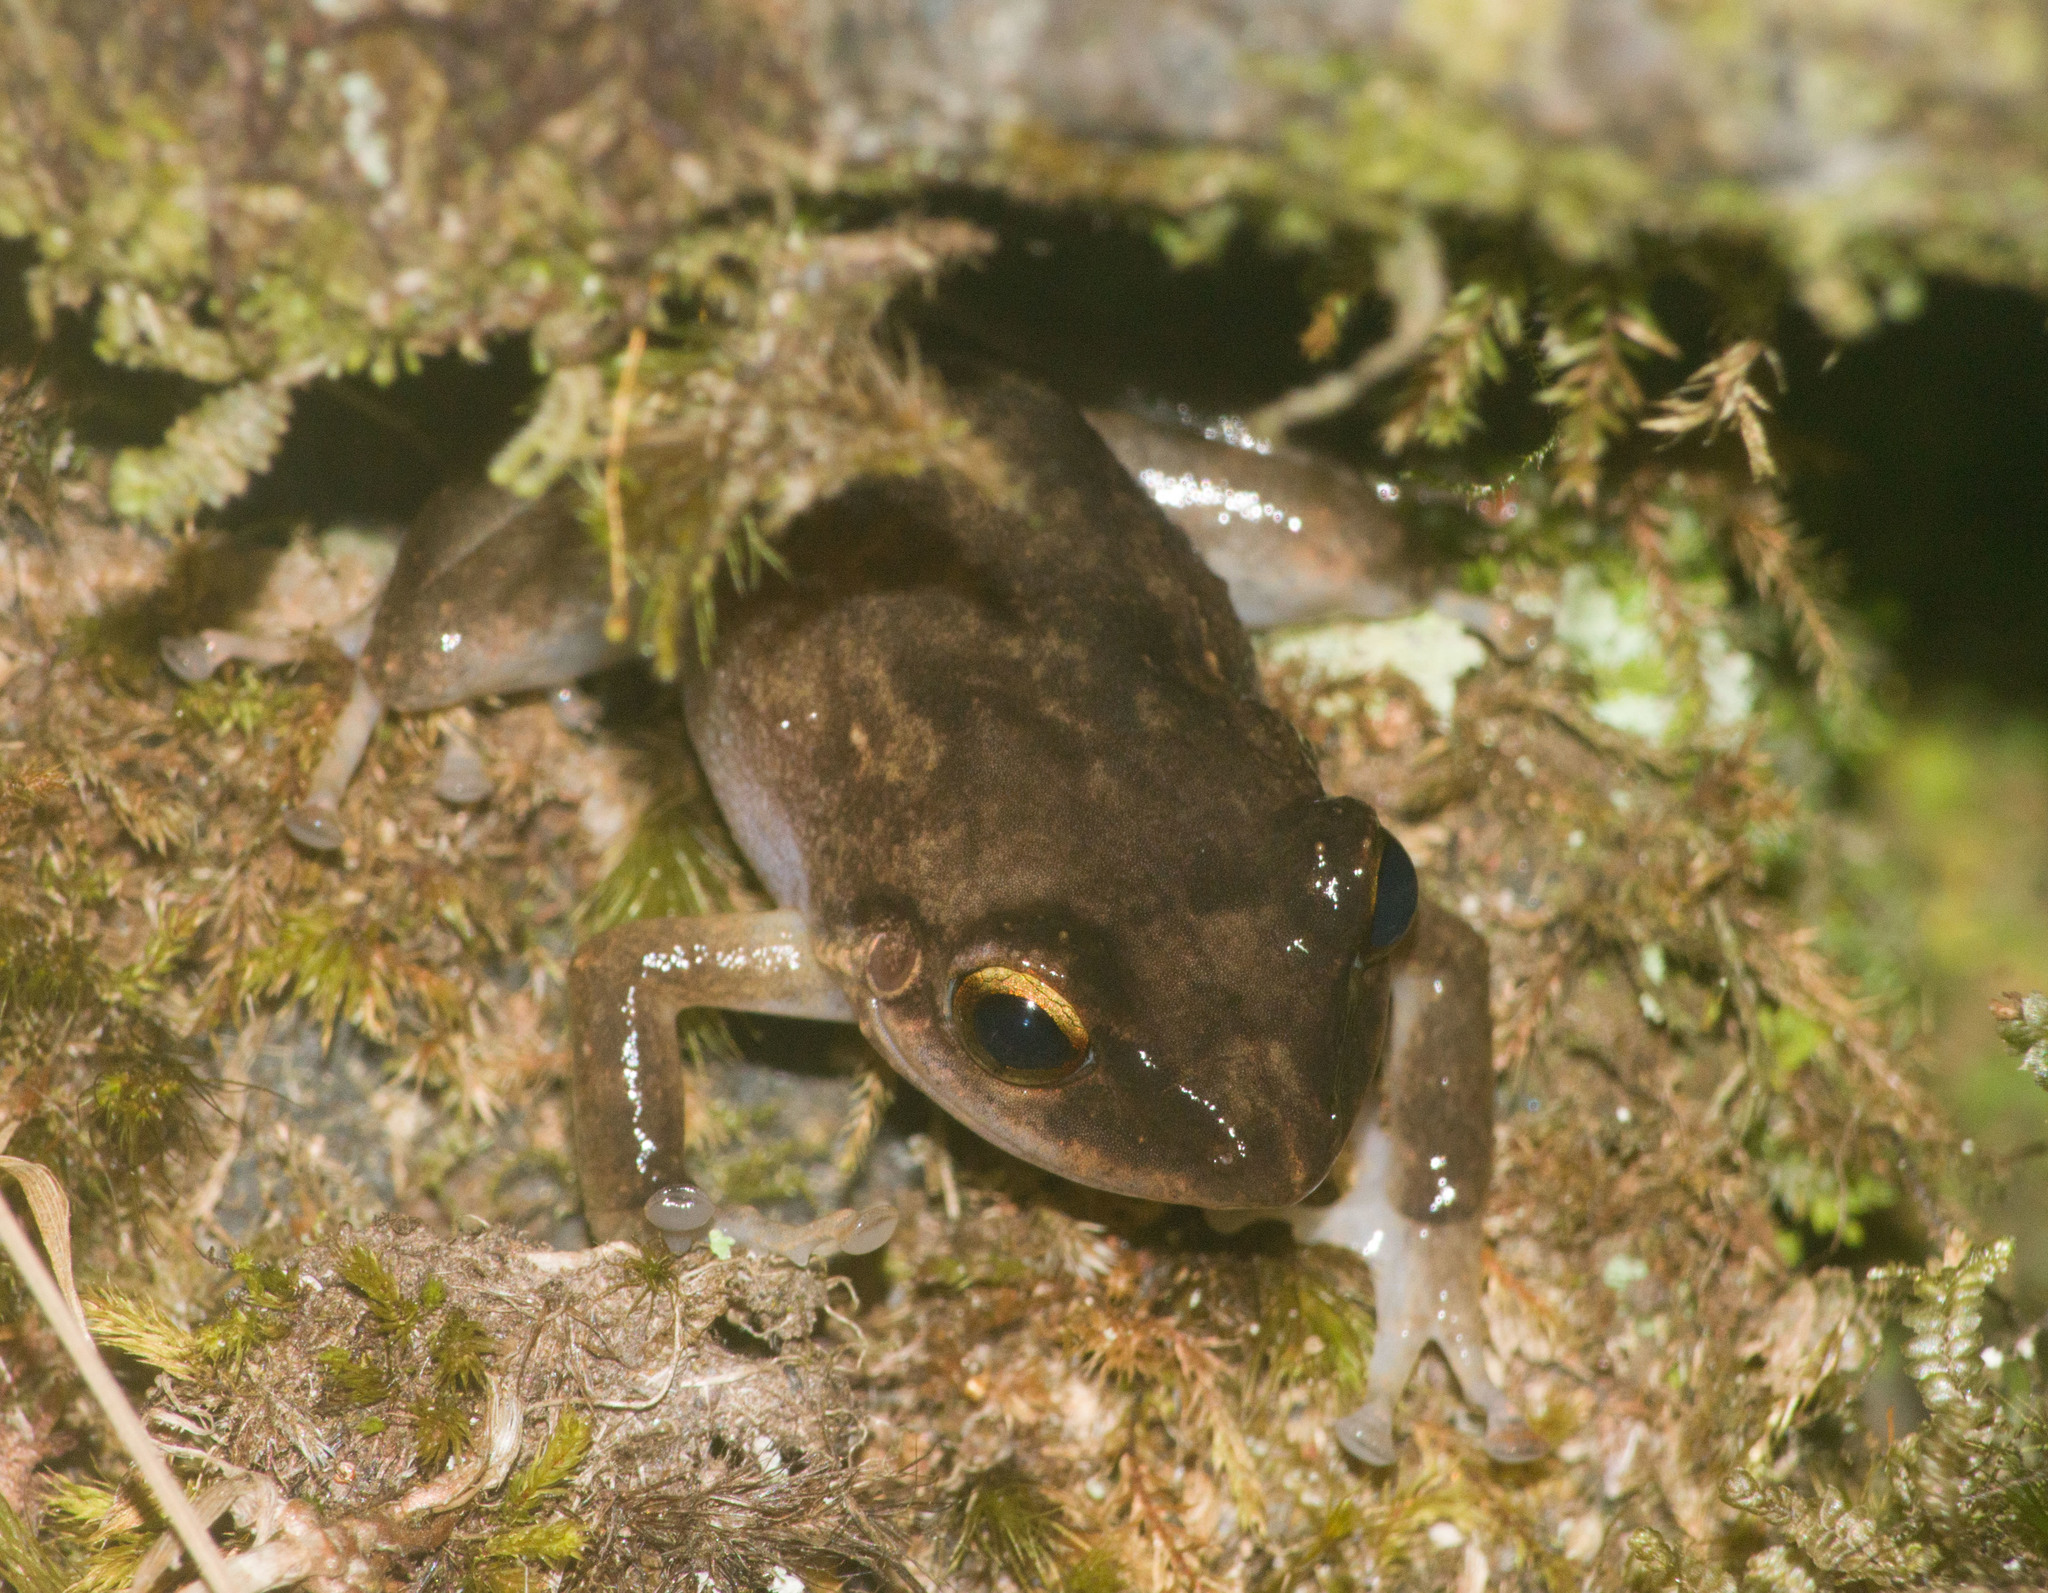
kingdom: Animalia
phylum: Chordata
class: Amphibia
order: Anura
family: Eleutherodactylidae
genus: Eleutherodactylus
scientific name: Eleutherodactylus coqui
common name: Coqui frog
